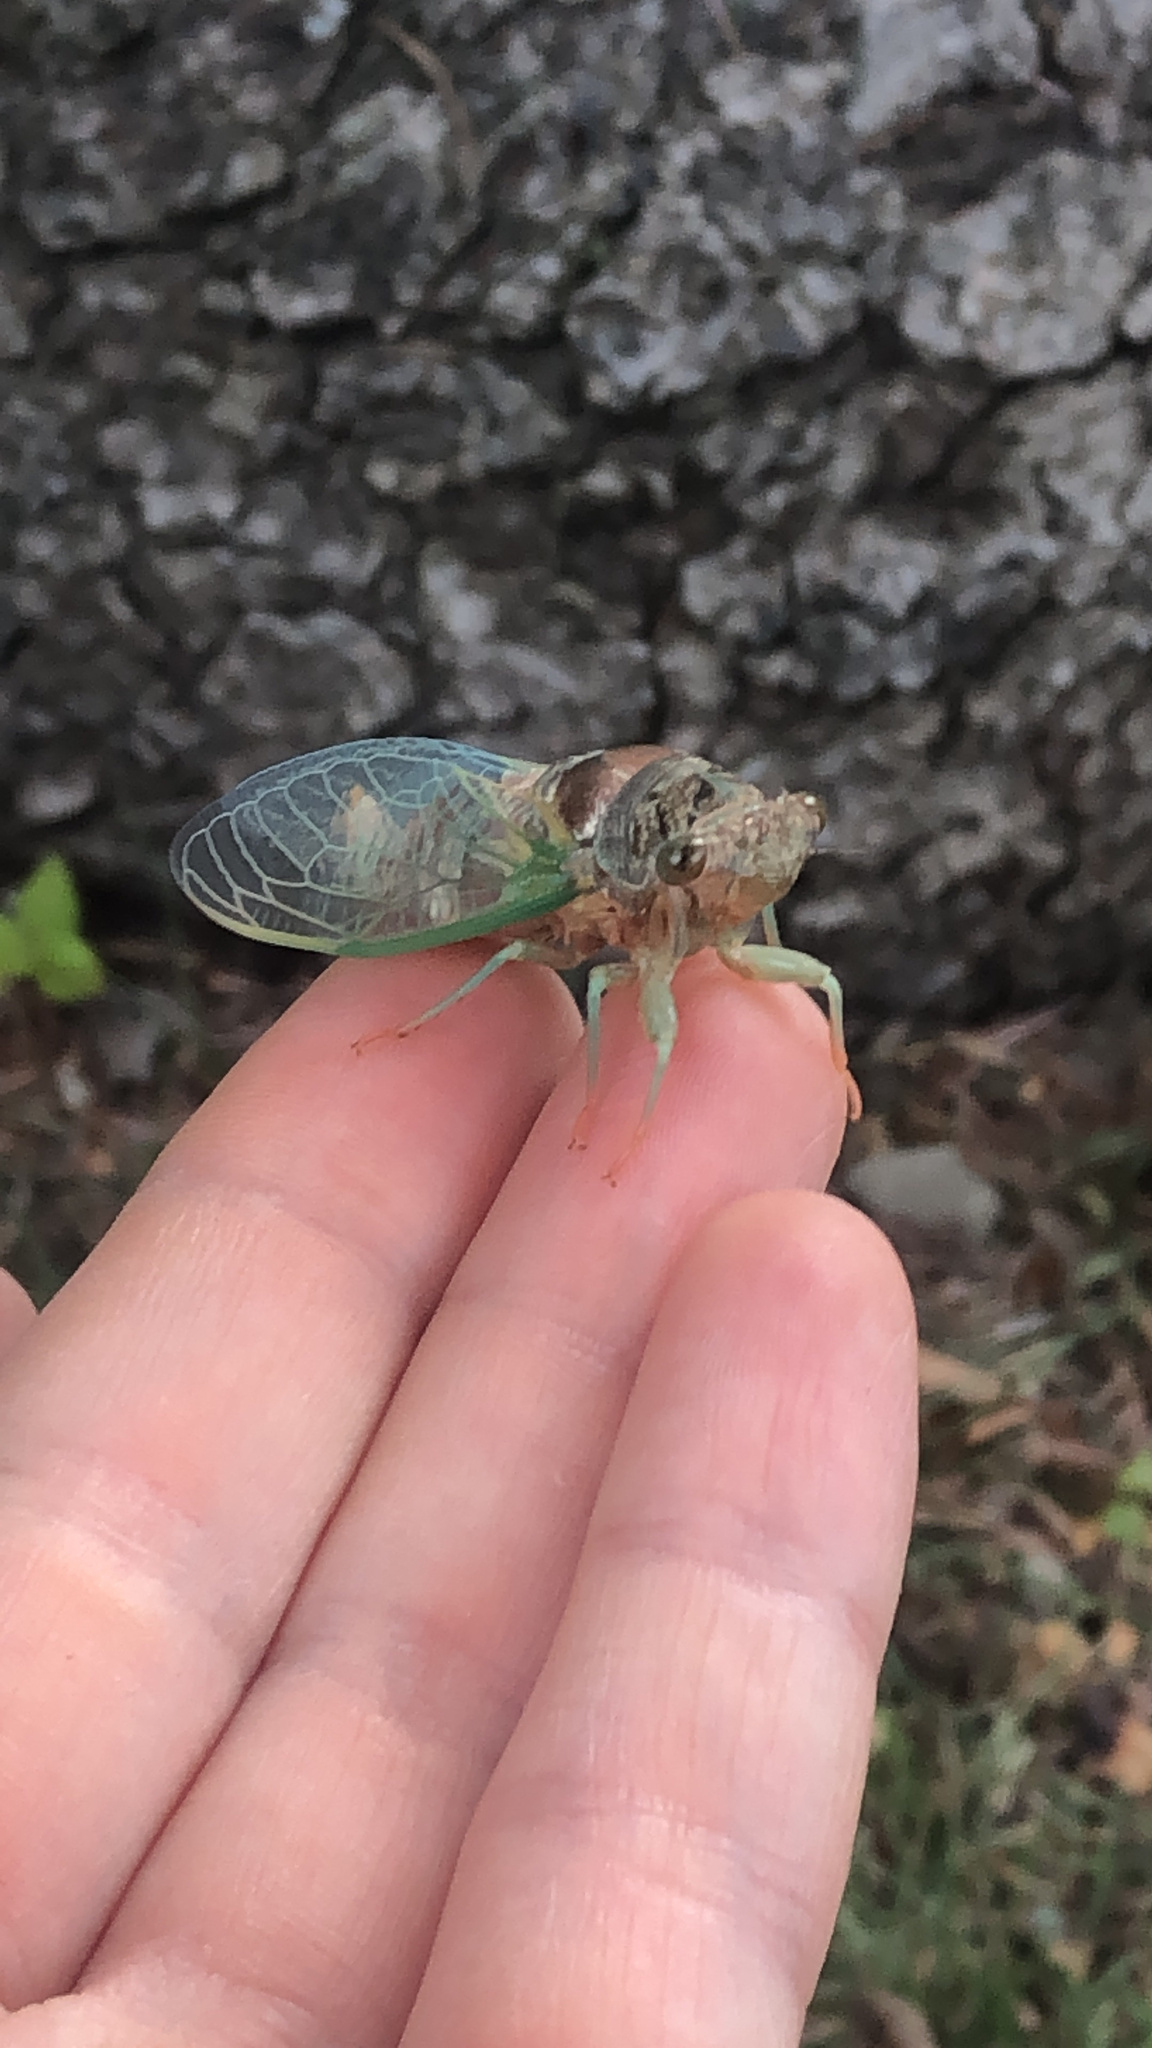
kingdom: Animalia
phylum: Arthropoda
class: Insecta
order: Hemiptera
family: Cicadidae
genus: Neotibicen
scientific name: Neotibicen canicularis
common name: God-day cicada
